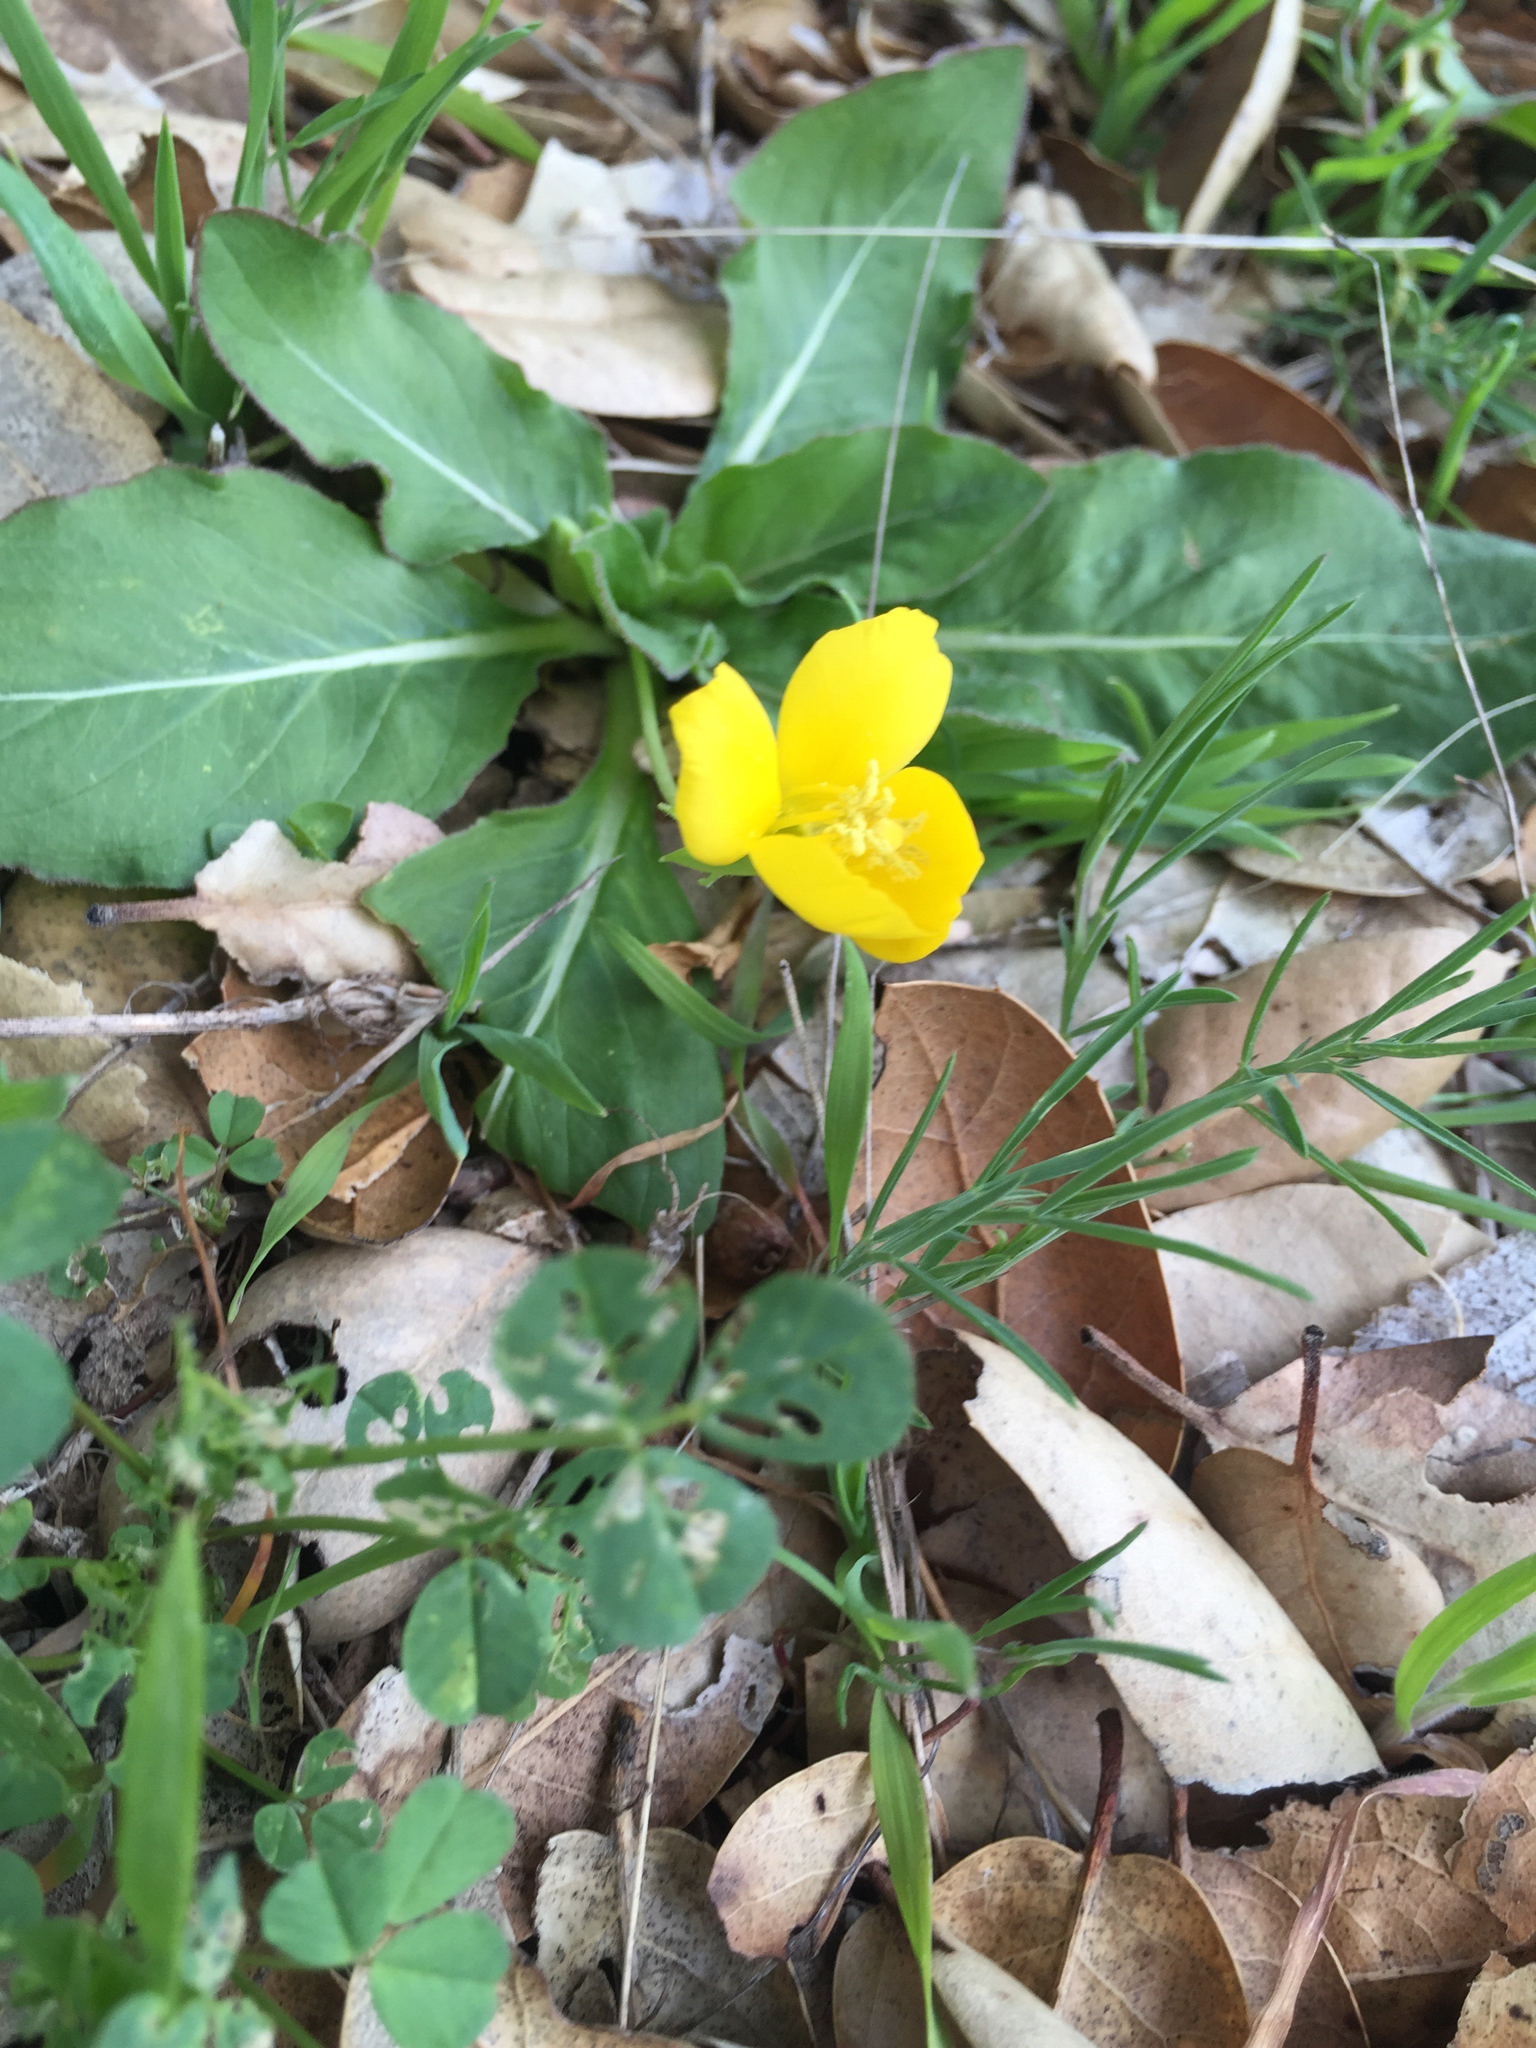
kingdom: Plantae
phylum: Tracheophyta
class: Magnoliopsida
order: Myrtales
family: Onagraceae
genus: Taraxia
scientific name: Taraxia ovata
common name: Goldeneggs
